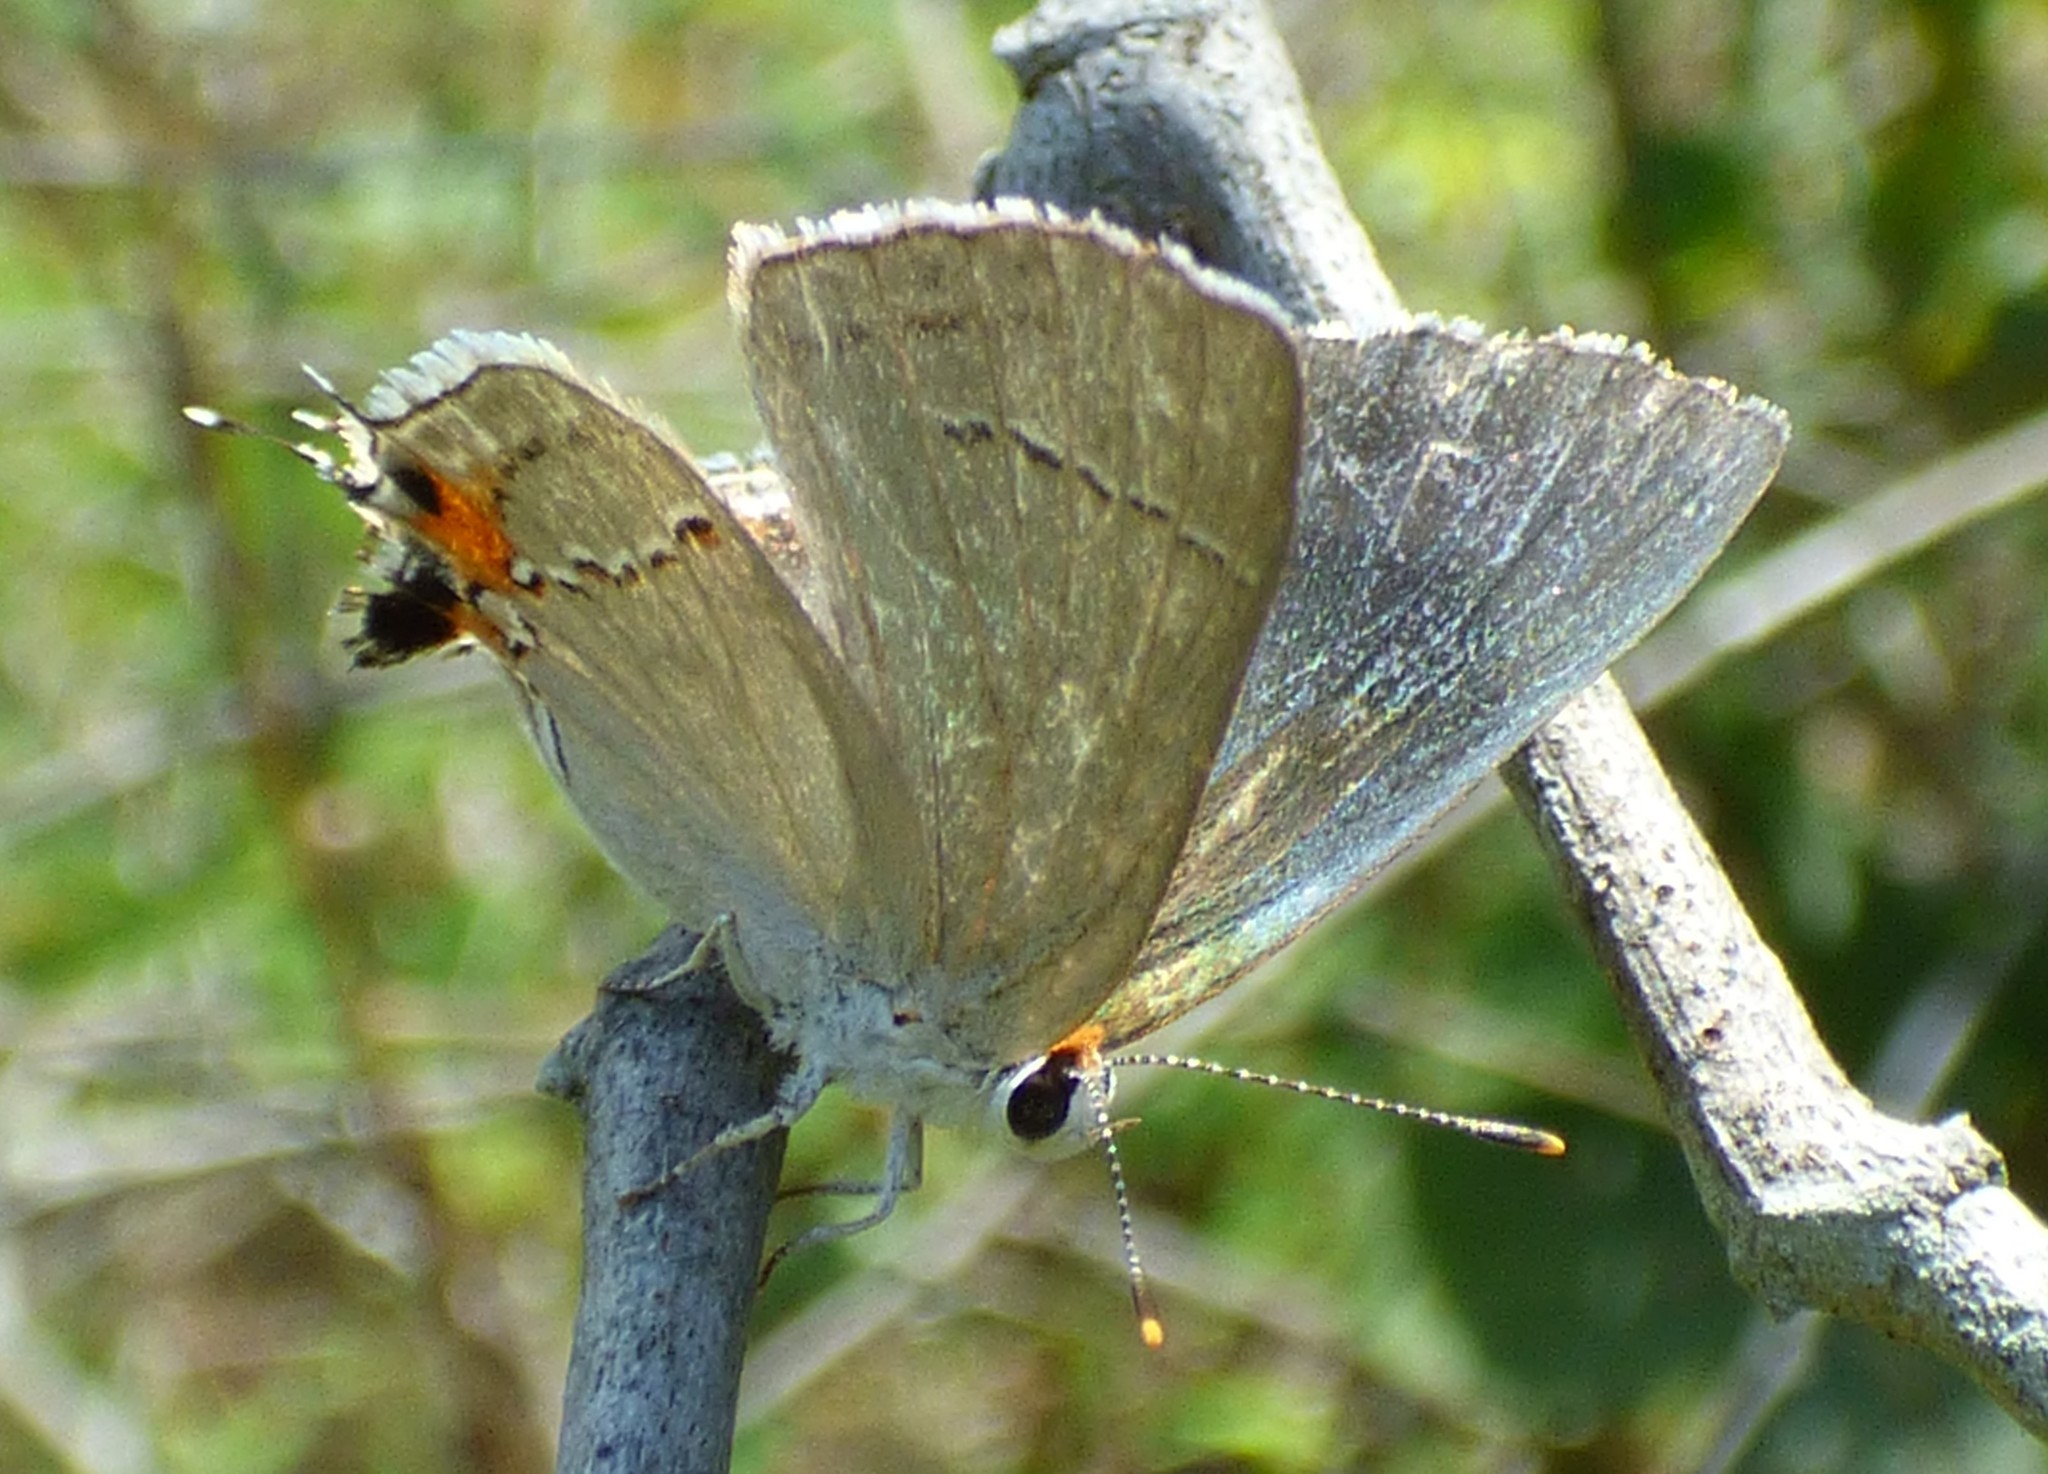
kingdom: Animalia
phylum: Arthropoda
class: Insecta
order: Lepidoptera
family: Lycaenidae
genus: Strymon
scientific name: Strymon melinus
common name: Gray hairstreak
